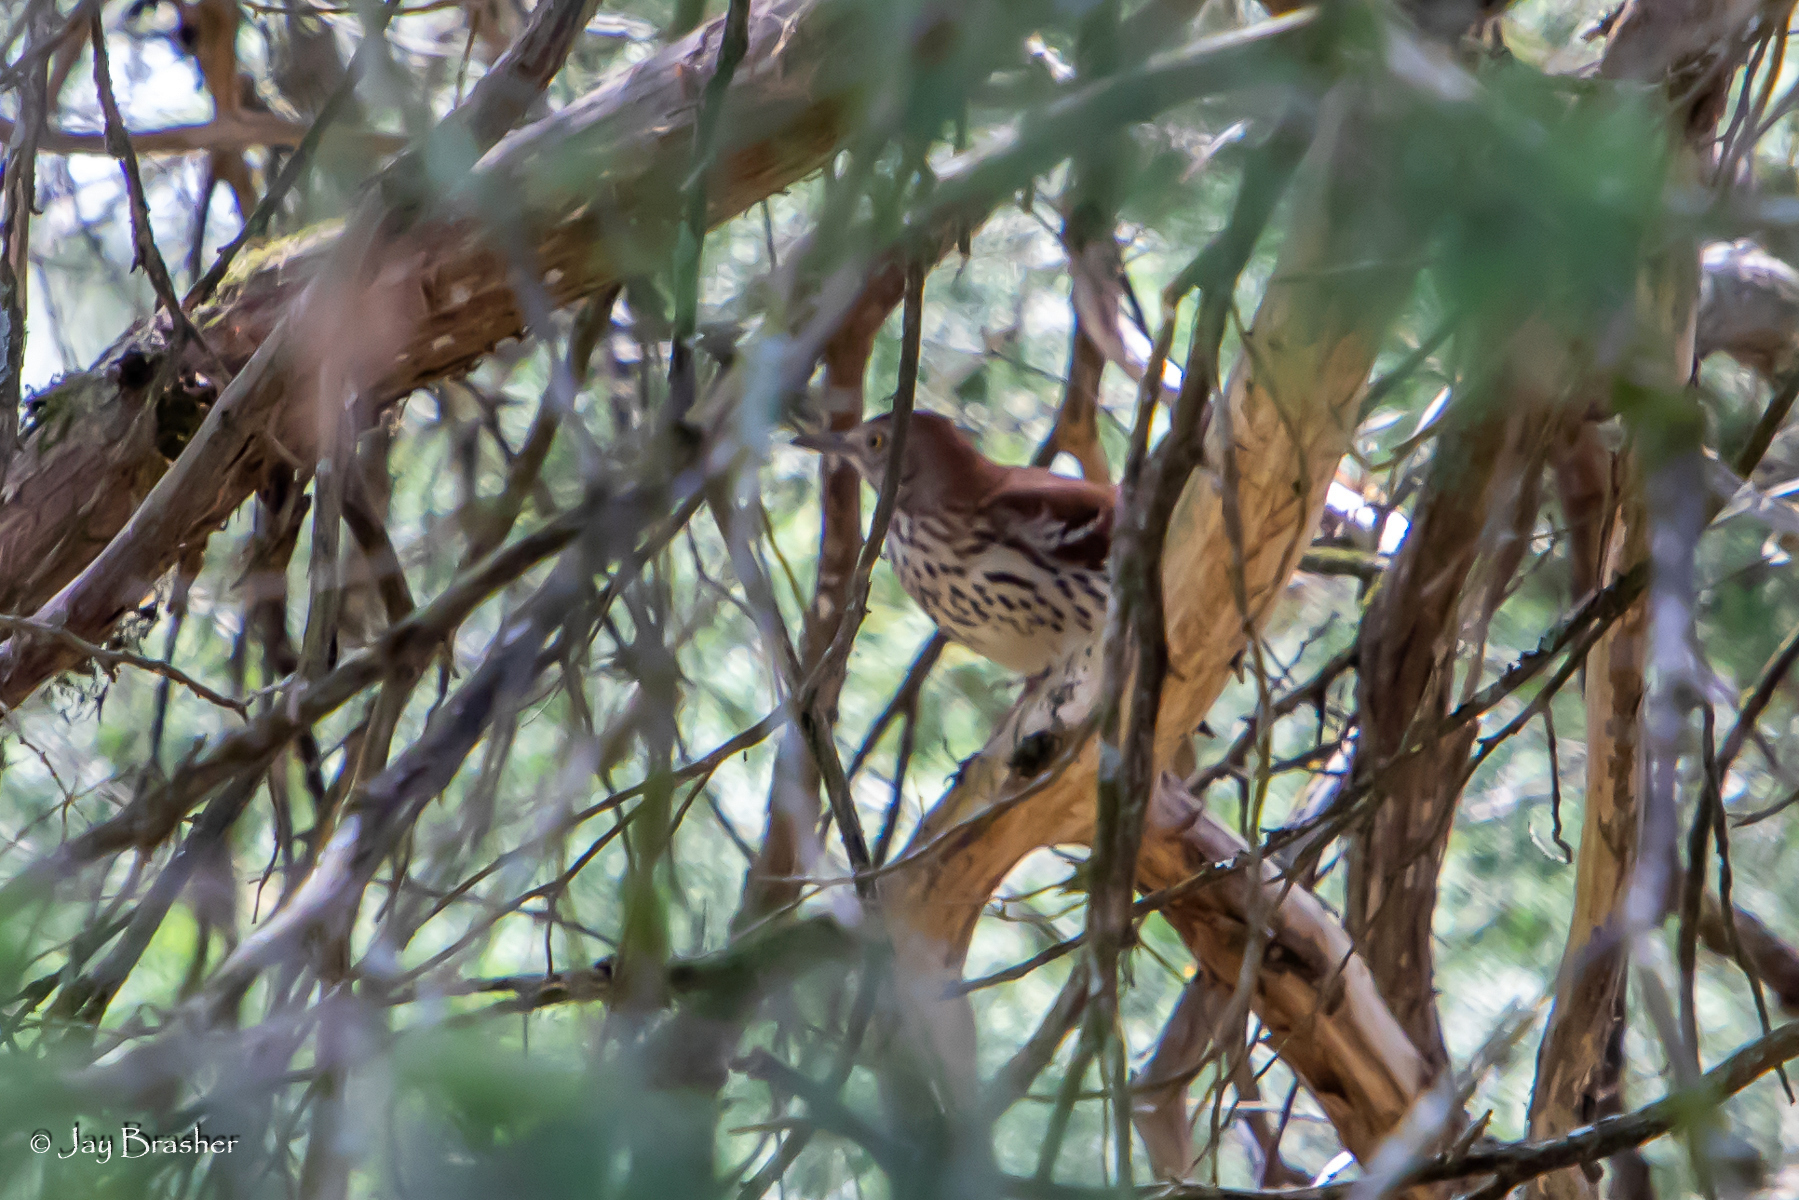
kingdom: Animalia
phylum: Chordata
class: Aves
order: Passeriformes
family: Mimidae
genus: Toxostoma
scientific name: Toxostoma rufum
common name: Brown thrasher
